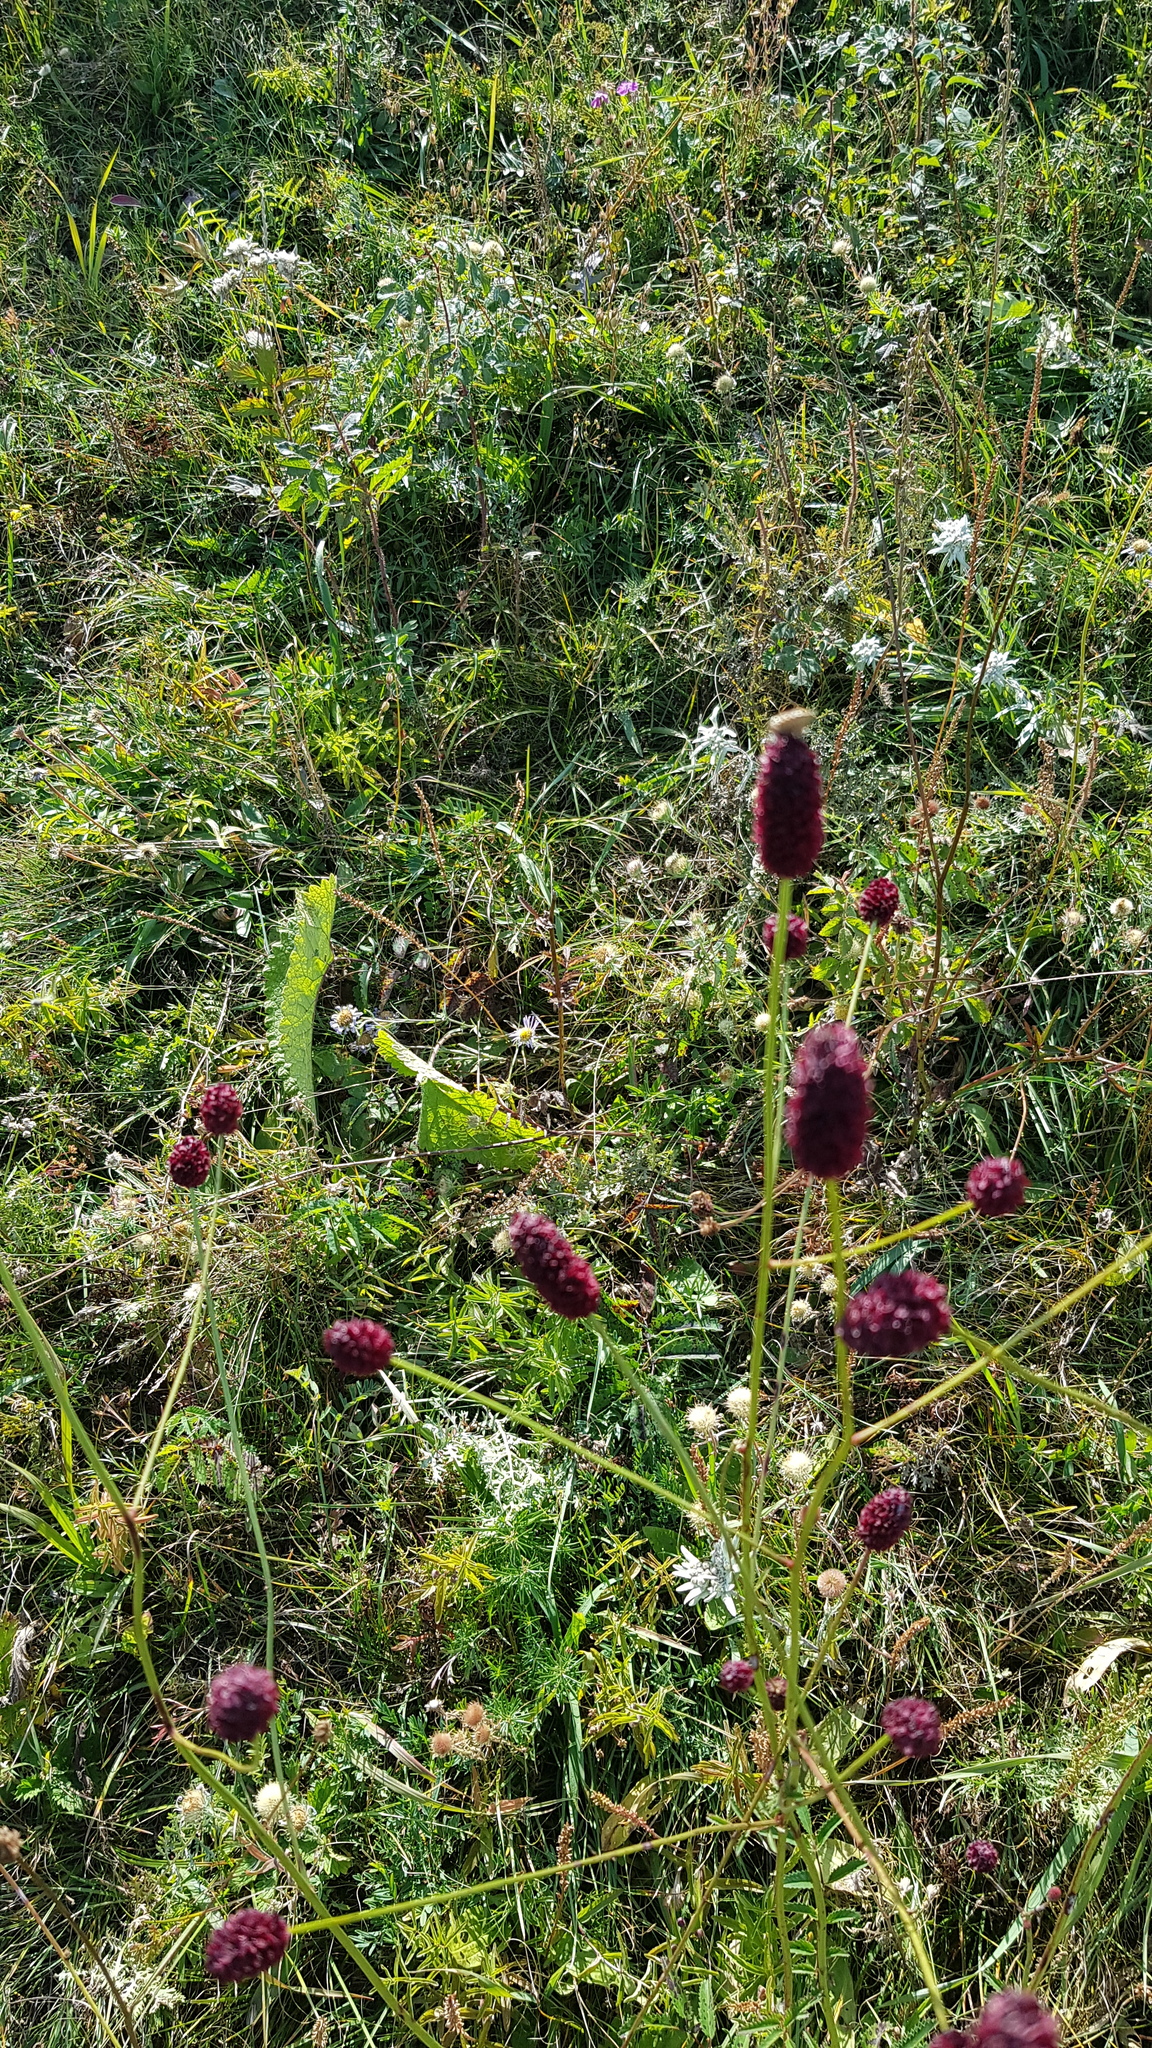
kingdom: Plantae
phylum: Tracheophyta
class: Magnoliopsida
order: Rosales
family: Rosaceae
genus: Sanguisorba
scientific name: Sanguisorba officinalis
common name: Great burnet
